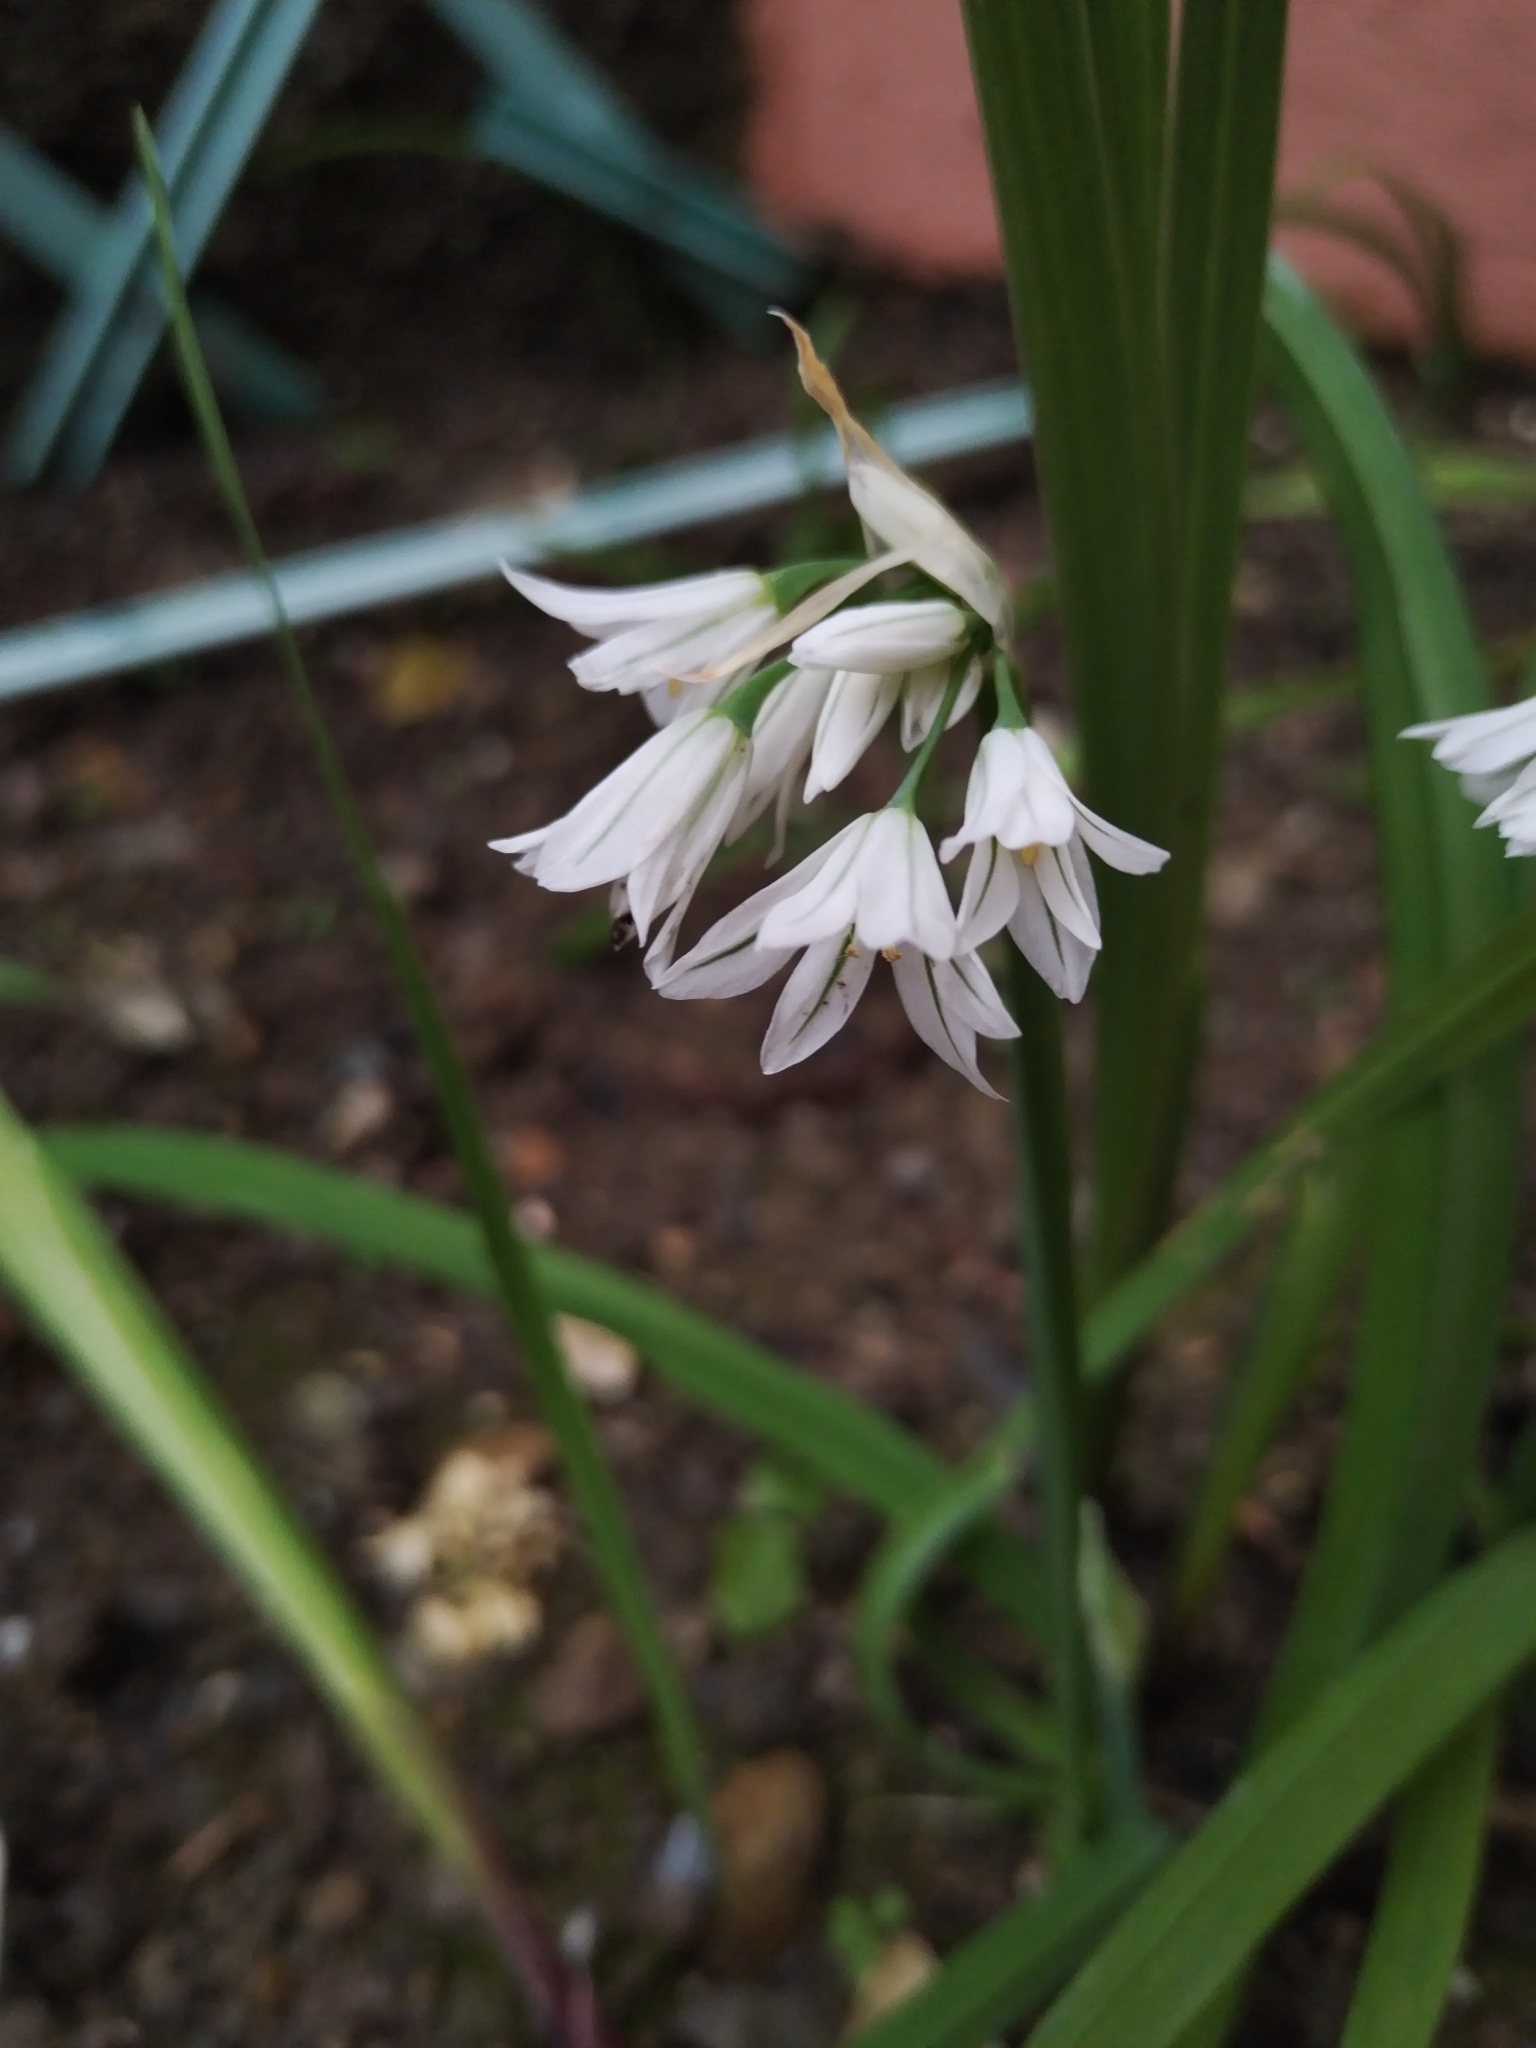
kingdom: Plantae
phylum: Tracheophyta
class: Liliopsida
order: Asparagales
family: Amaryllidaceae
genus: Allium
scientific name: Allium triquetrum
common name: Three-cornered garlic
